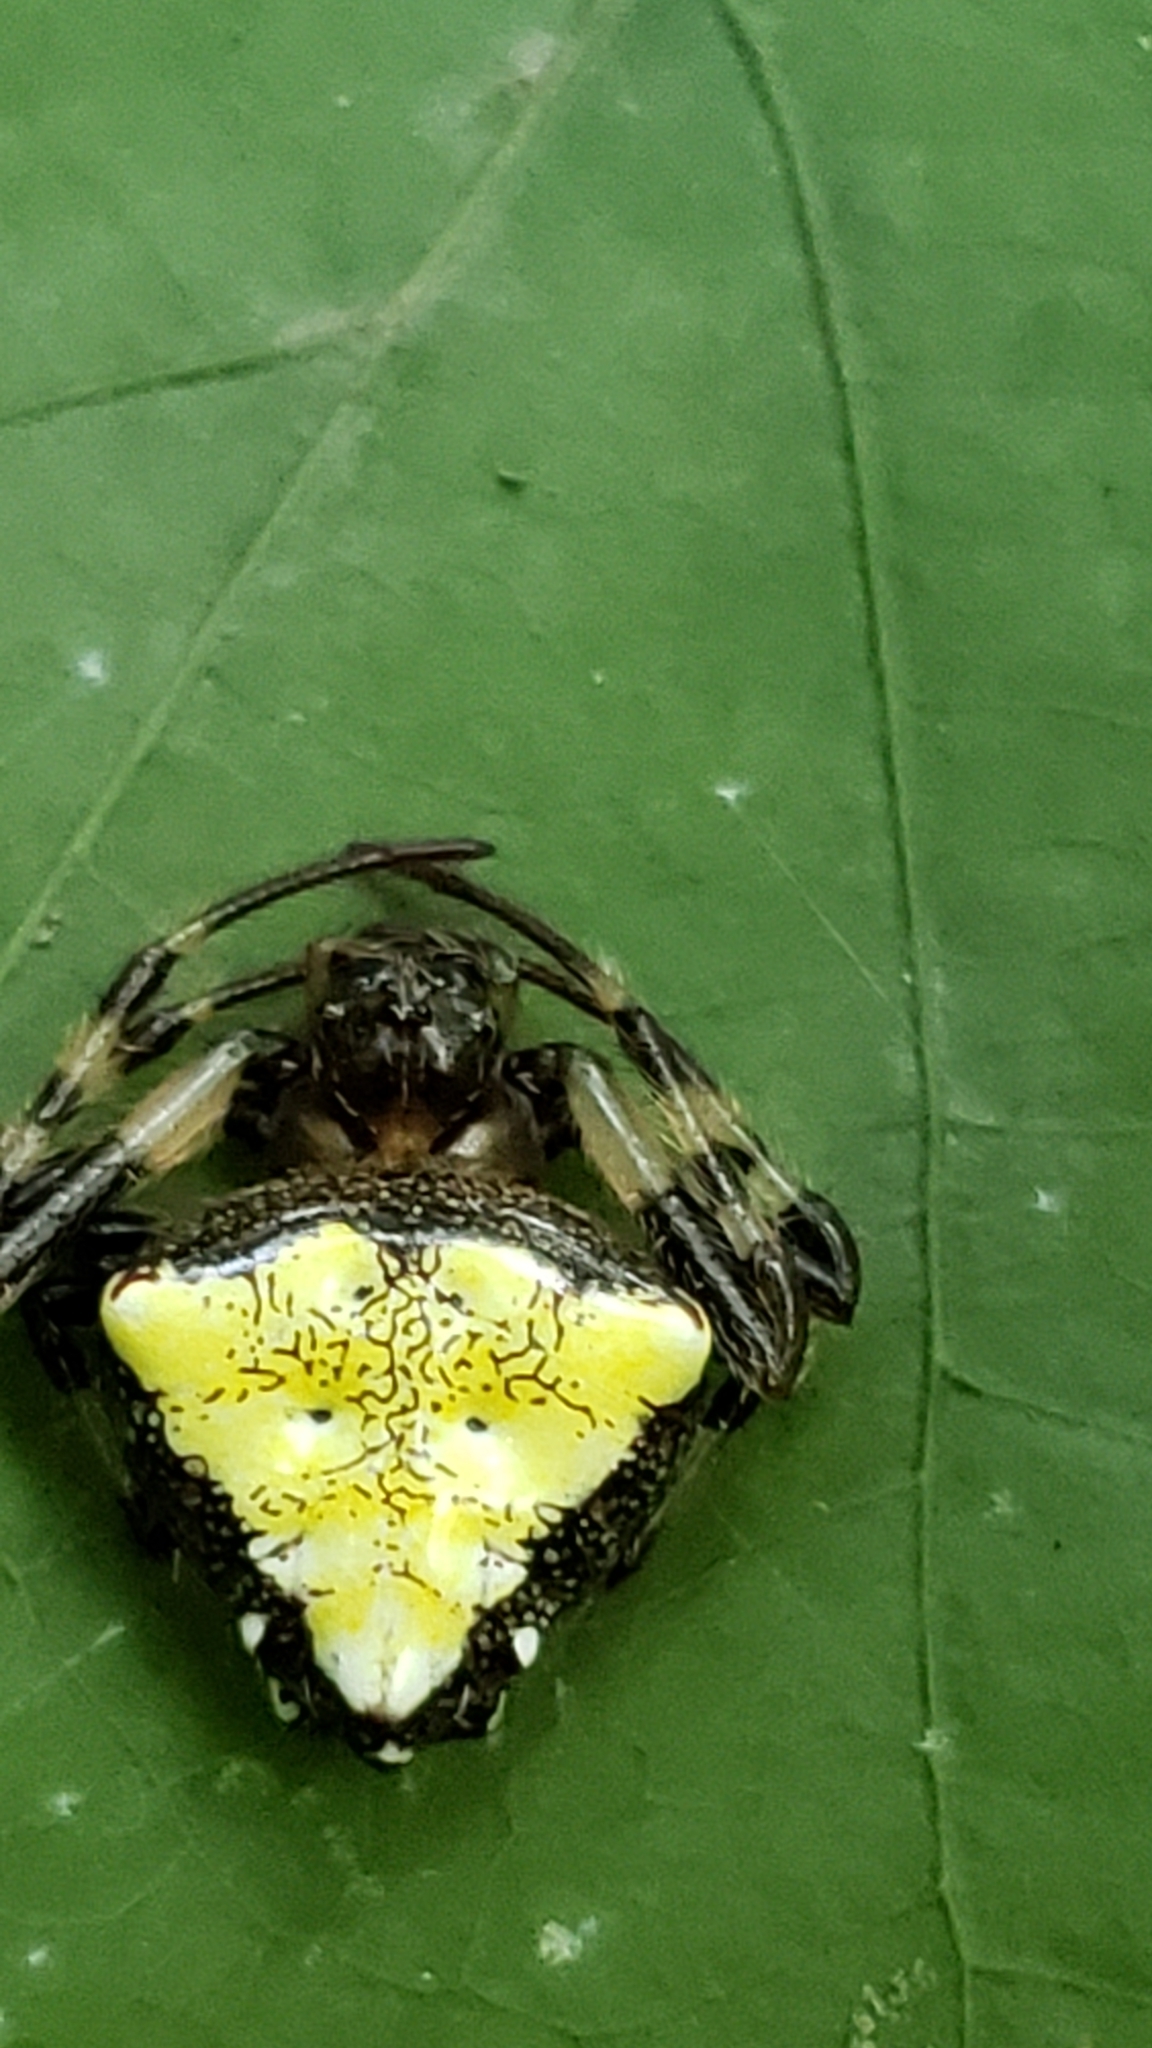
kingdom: Animalia
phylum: Arthropoda
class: Arachnida
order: Araneae
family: Araneidae
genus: Verrucosa
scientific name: Verrucosa arenata
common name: Orb weavers
